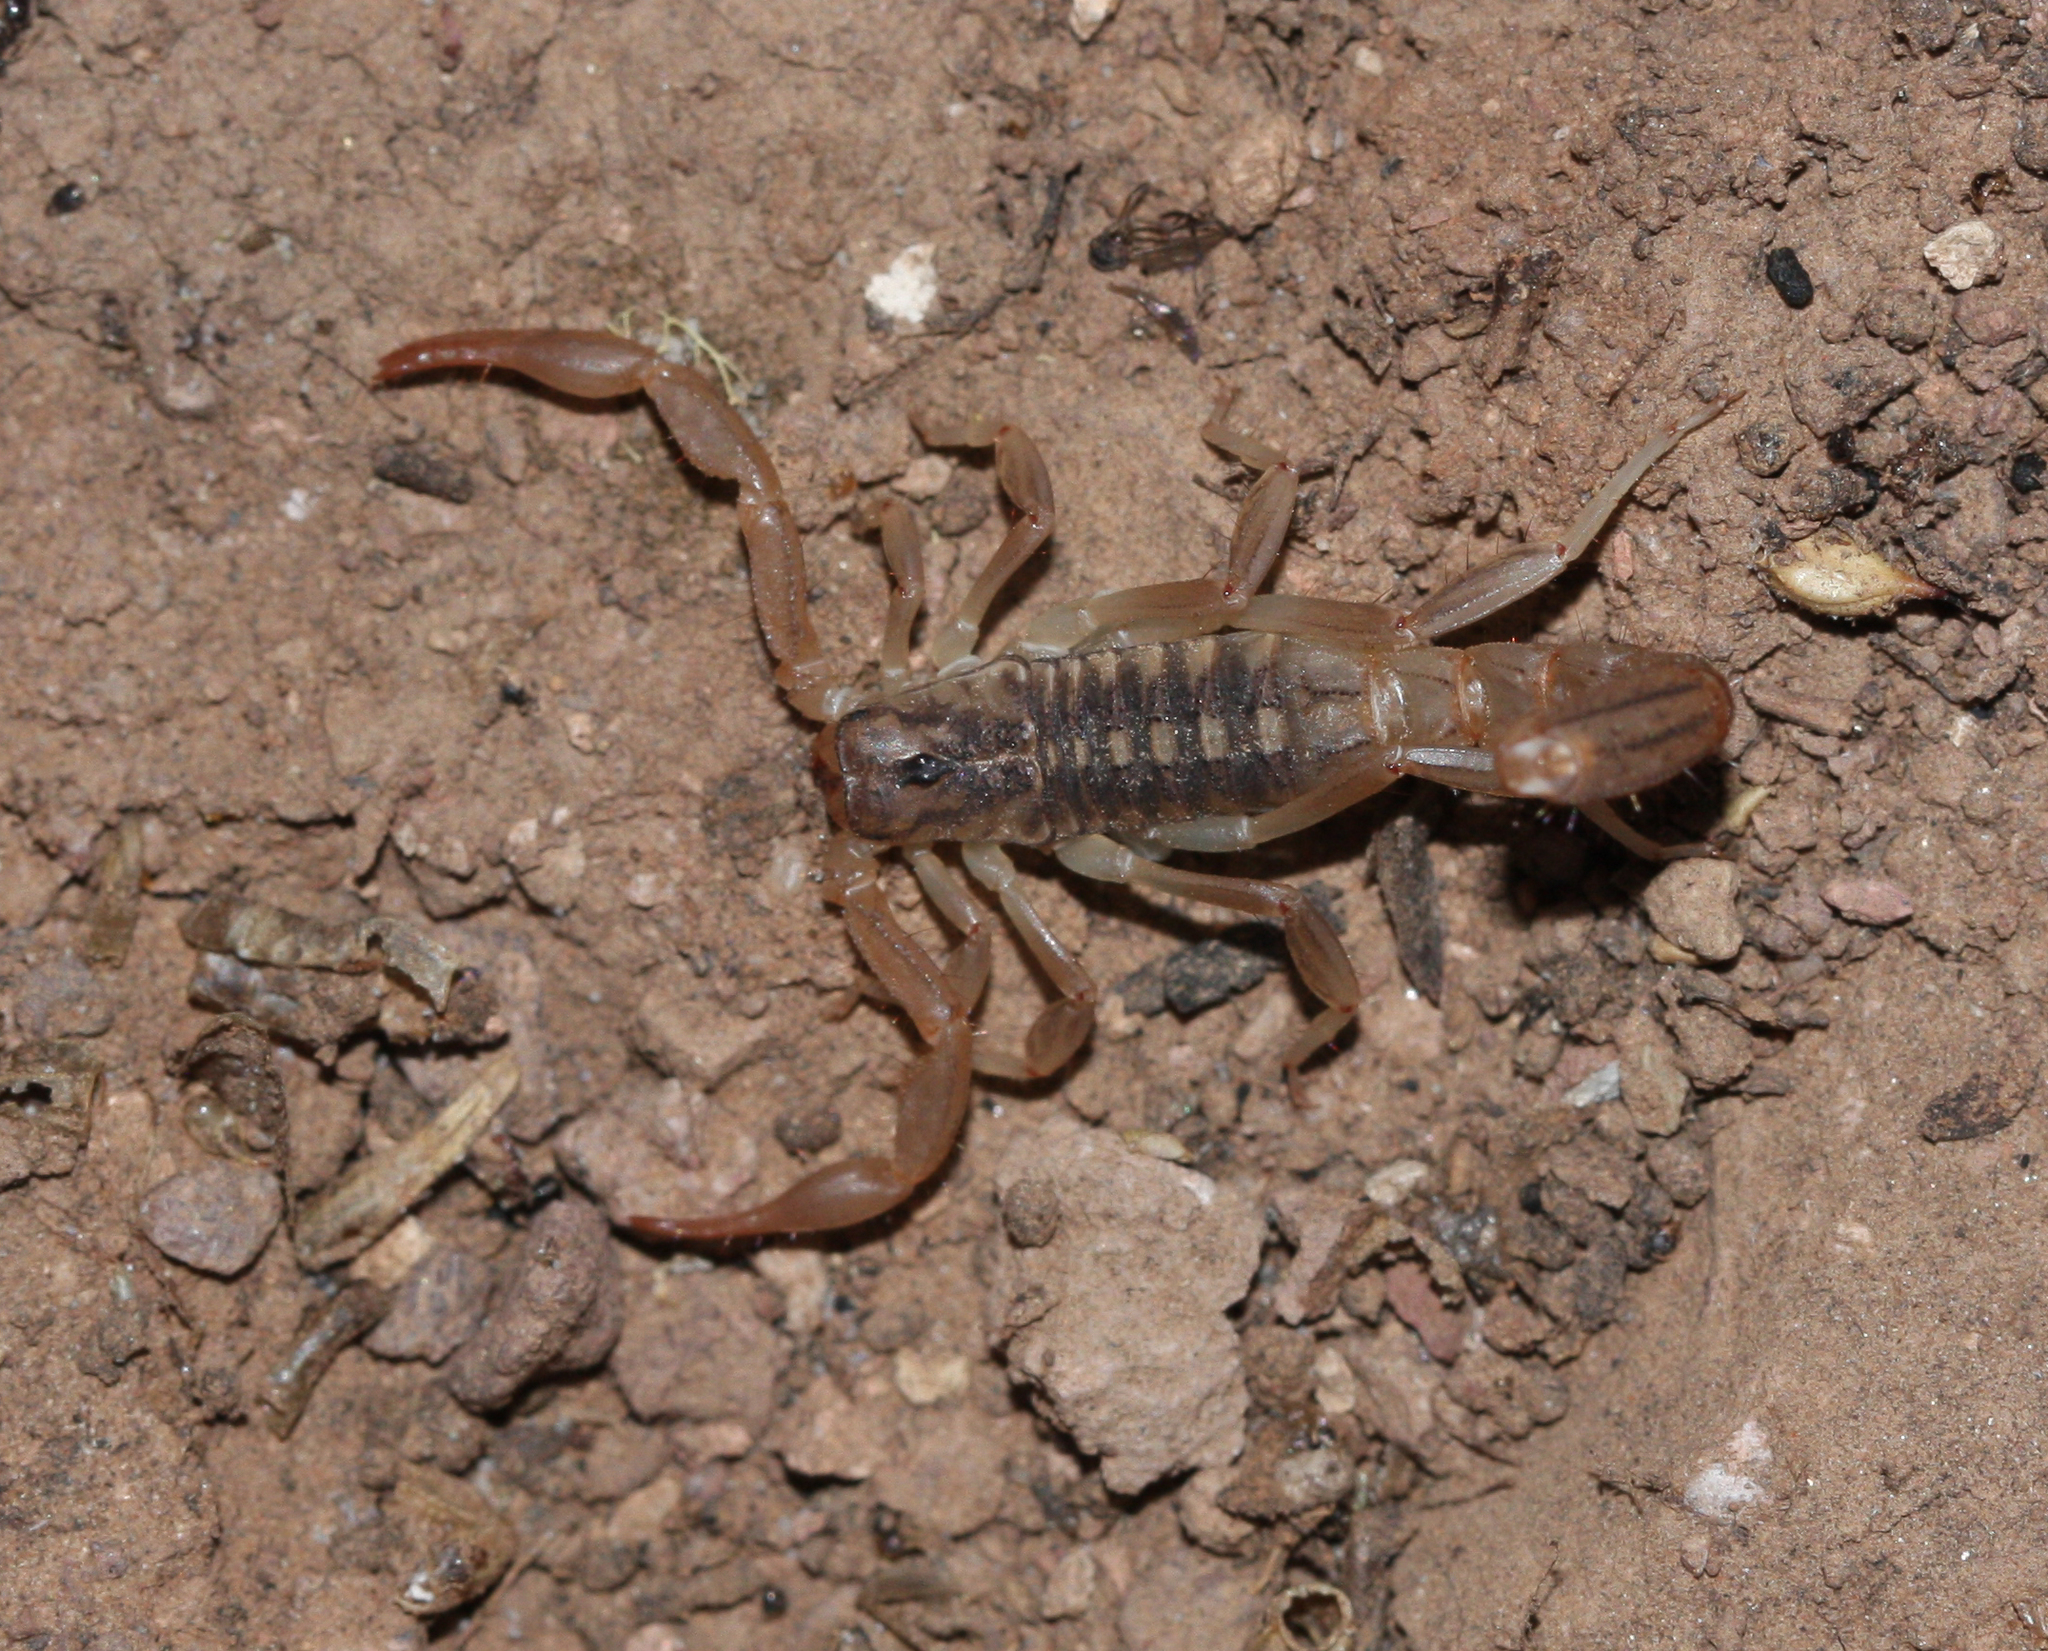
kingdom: Animalia
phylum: Arthropoda
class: Arachnida
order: Scorpiones
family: Vaejovidae
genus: Paravaejovis
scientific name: Paravaejovis spinigerus
